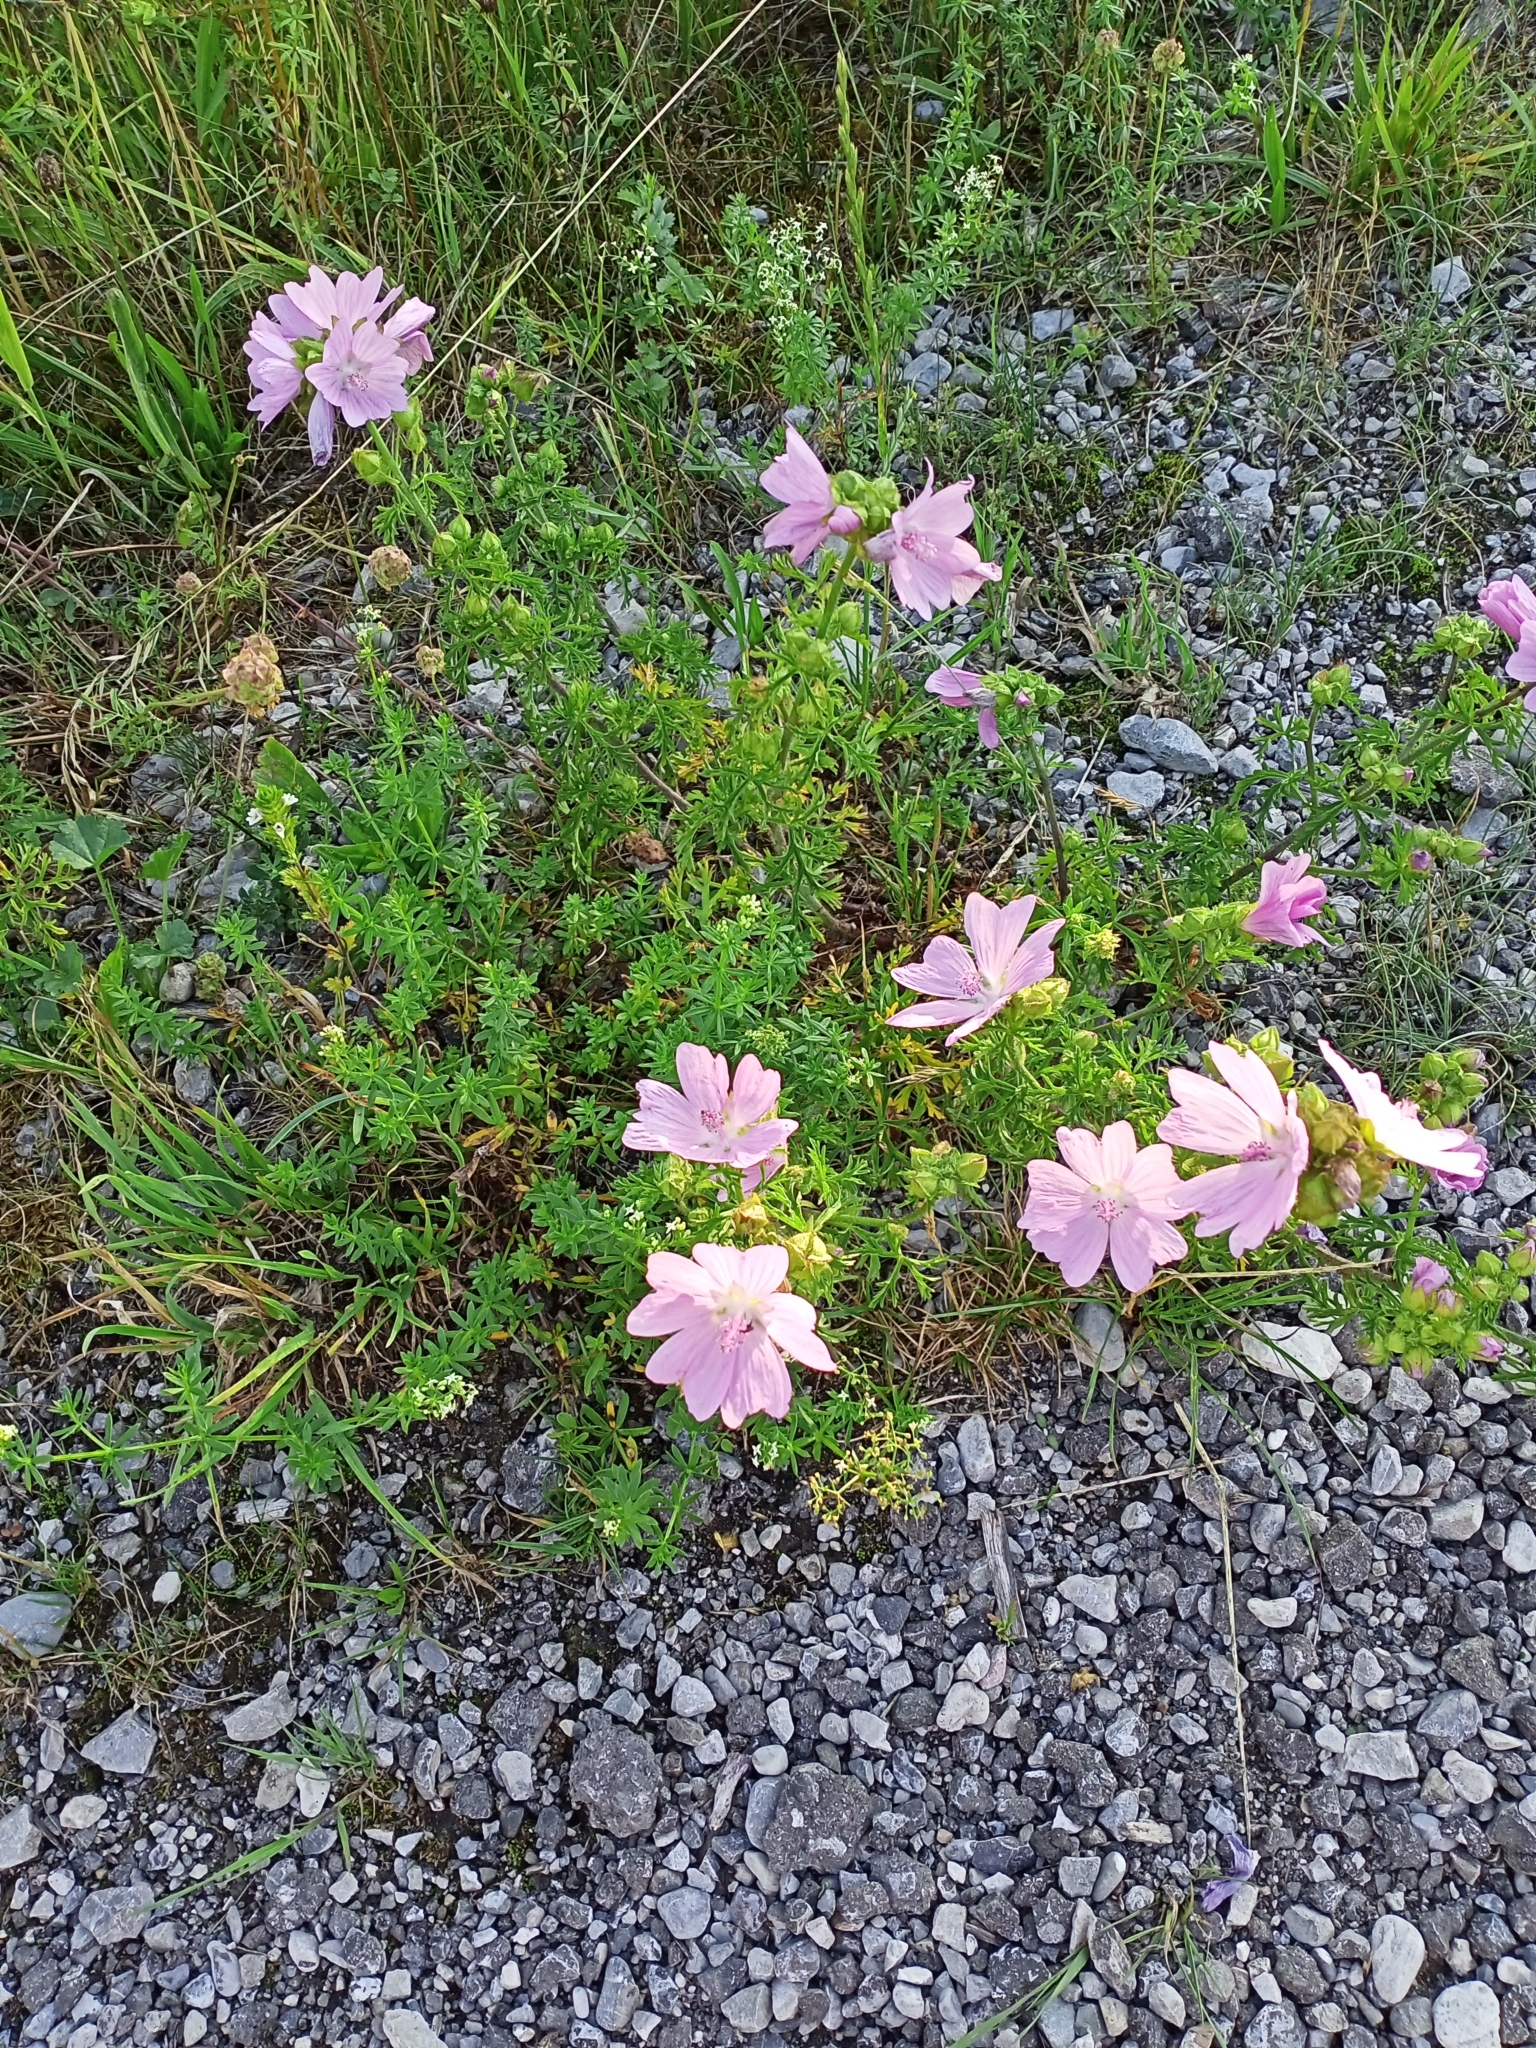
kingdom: Plantae
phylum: Tracheophyta
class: Magnoliopsida
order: Malvales
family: Malvaceae
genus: Malva
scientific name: Malva moschata
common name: Musk mallow
